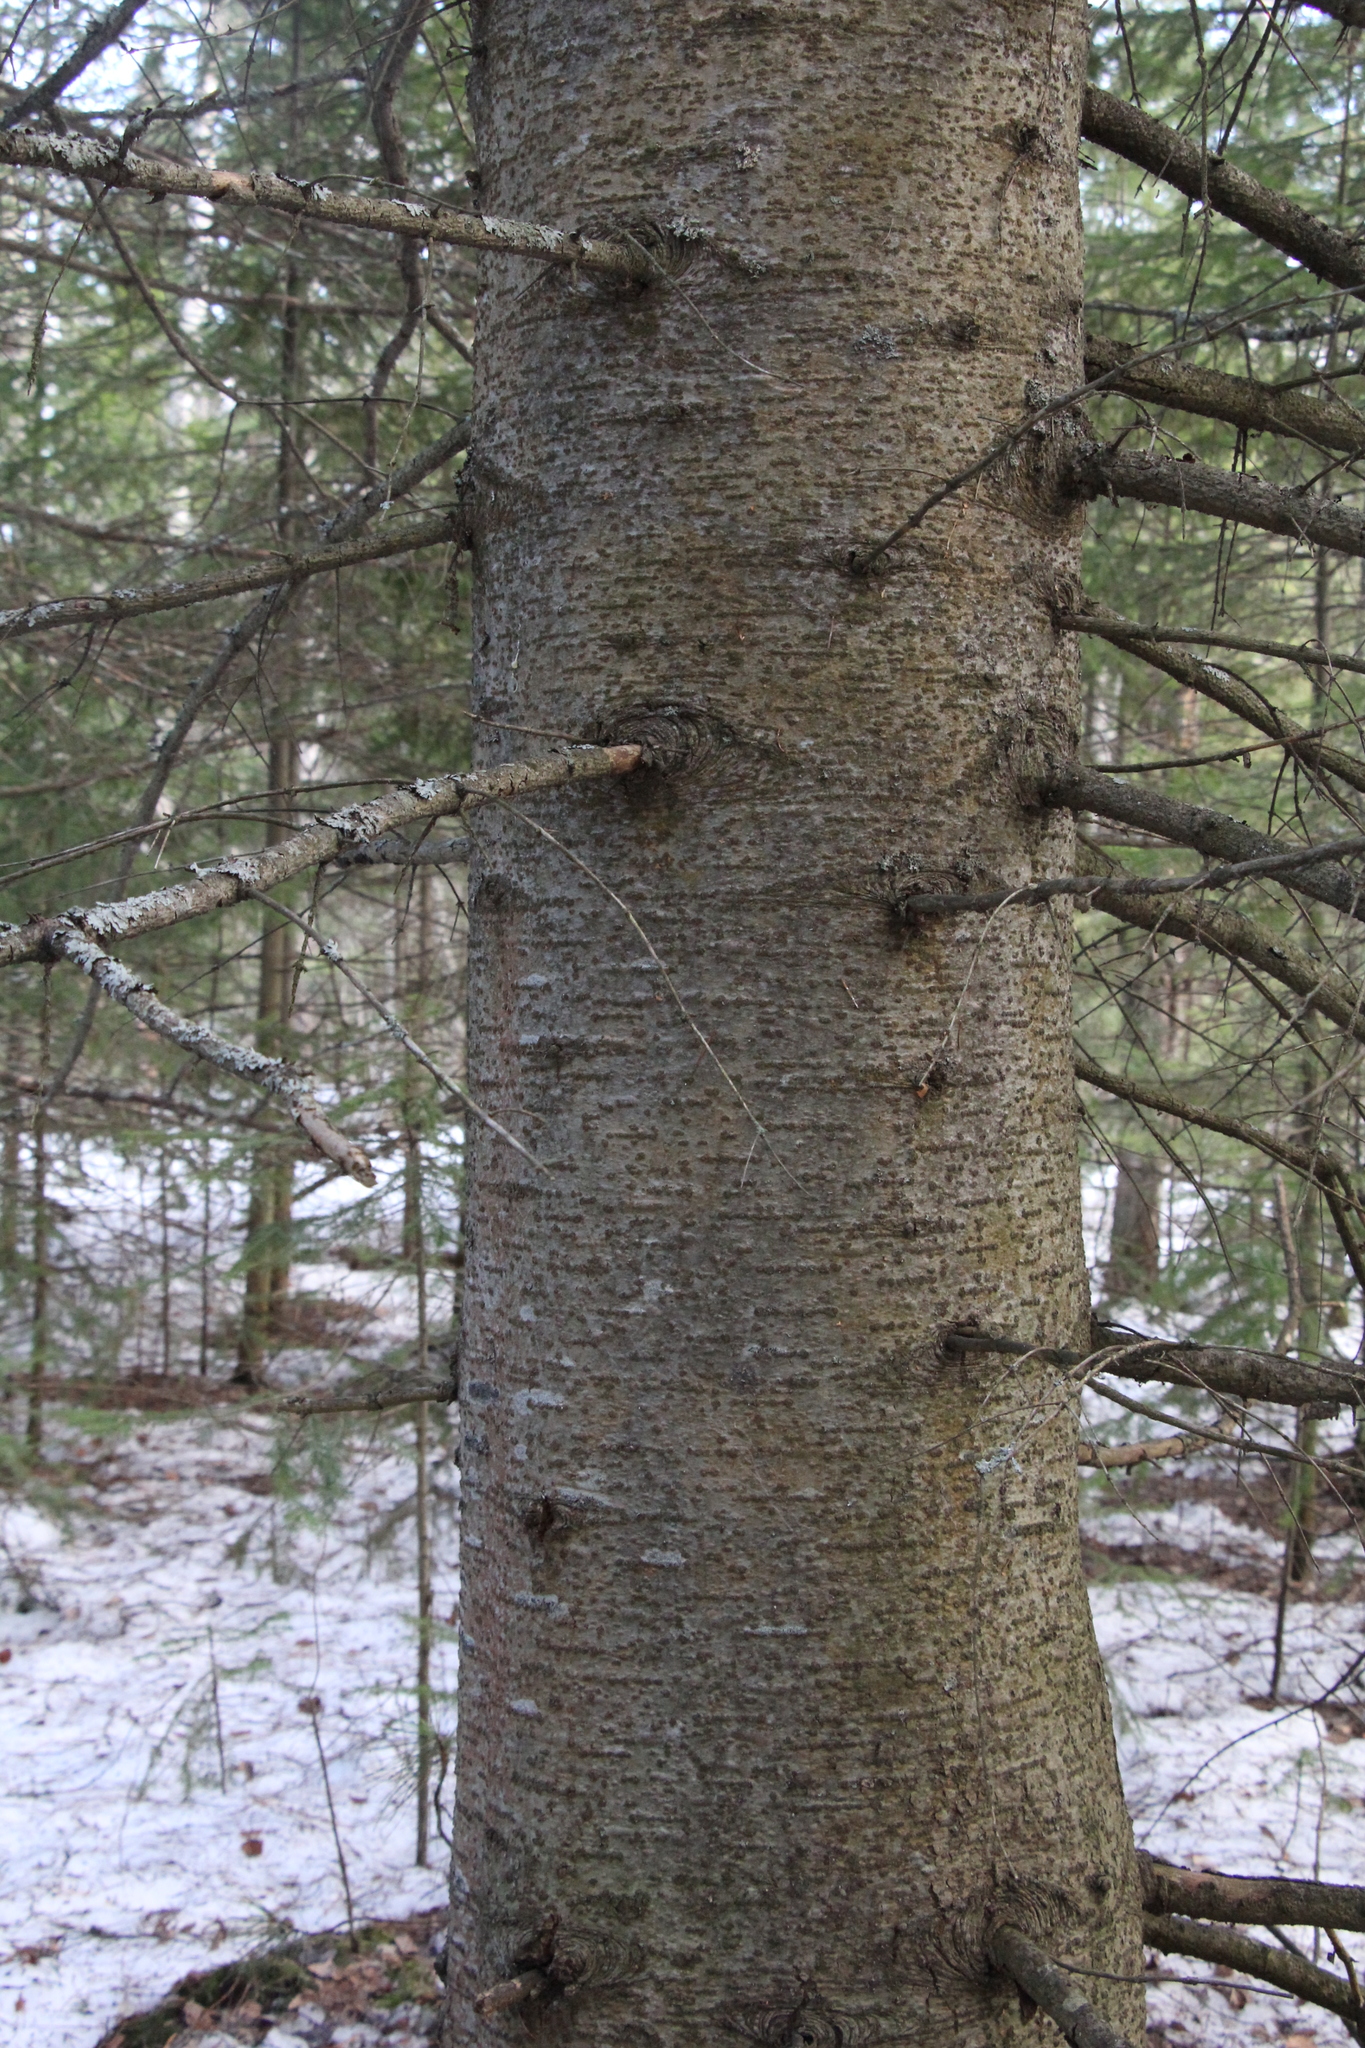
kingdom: Plantae
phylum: Tracheophyta
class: Pinopsida
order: Pinales
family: Pinaceae
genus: Abies
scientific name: Abies sibirica
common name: Siberian fir
